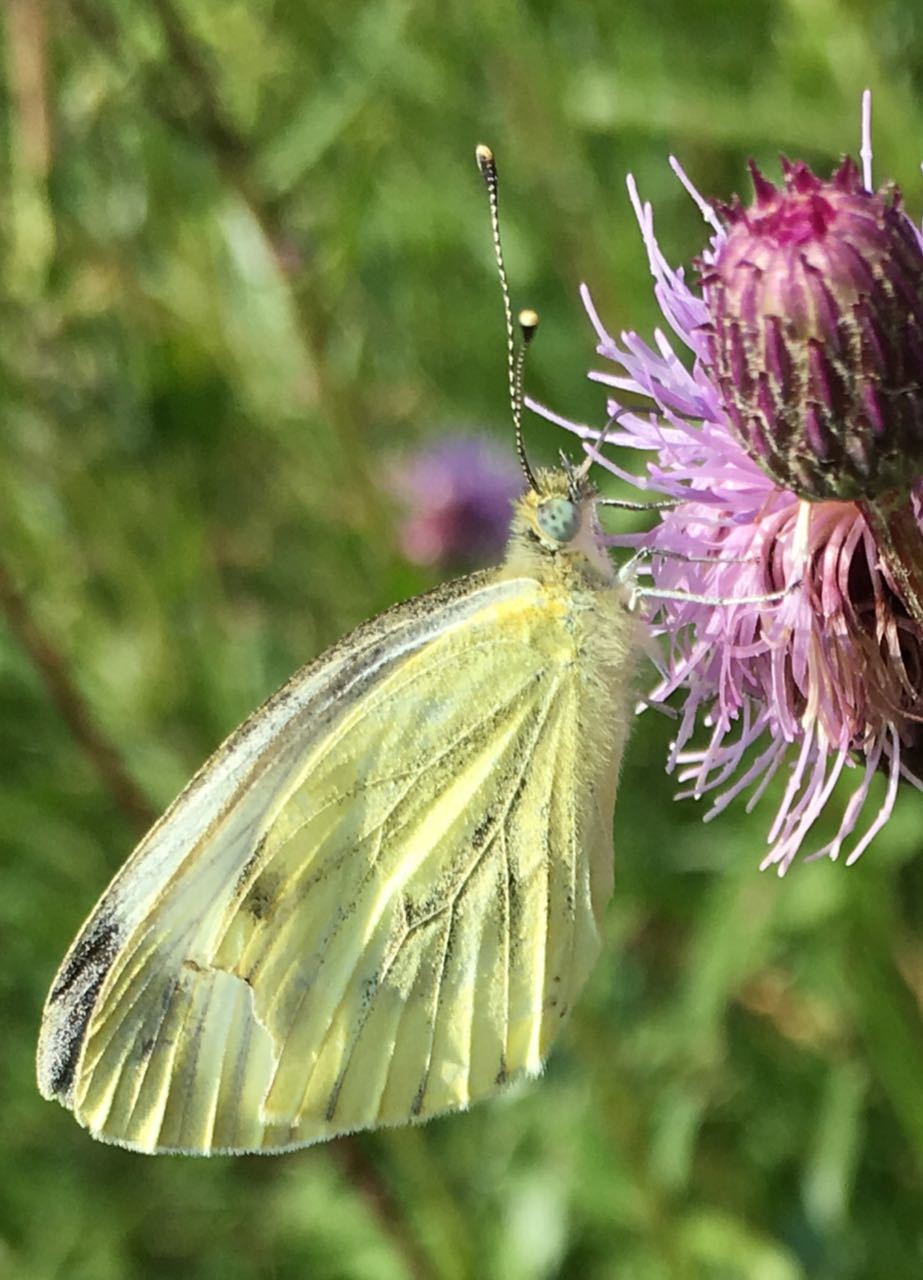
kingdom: Animalia
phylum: Arthropoda
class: Insecta
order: Lepidoptera
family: Pieridae
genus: Pieris
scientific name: Pieris napi
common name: Green-veined white
